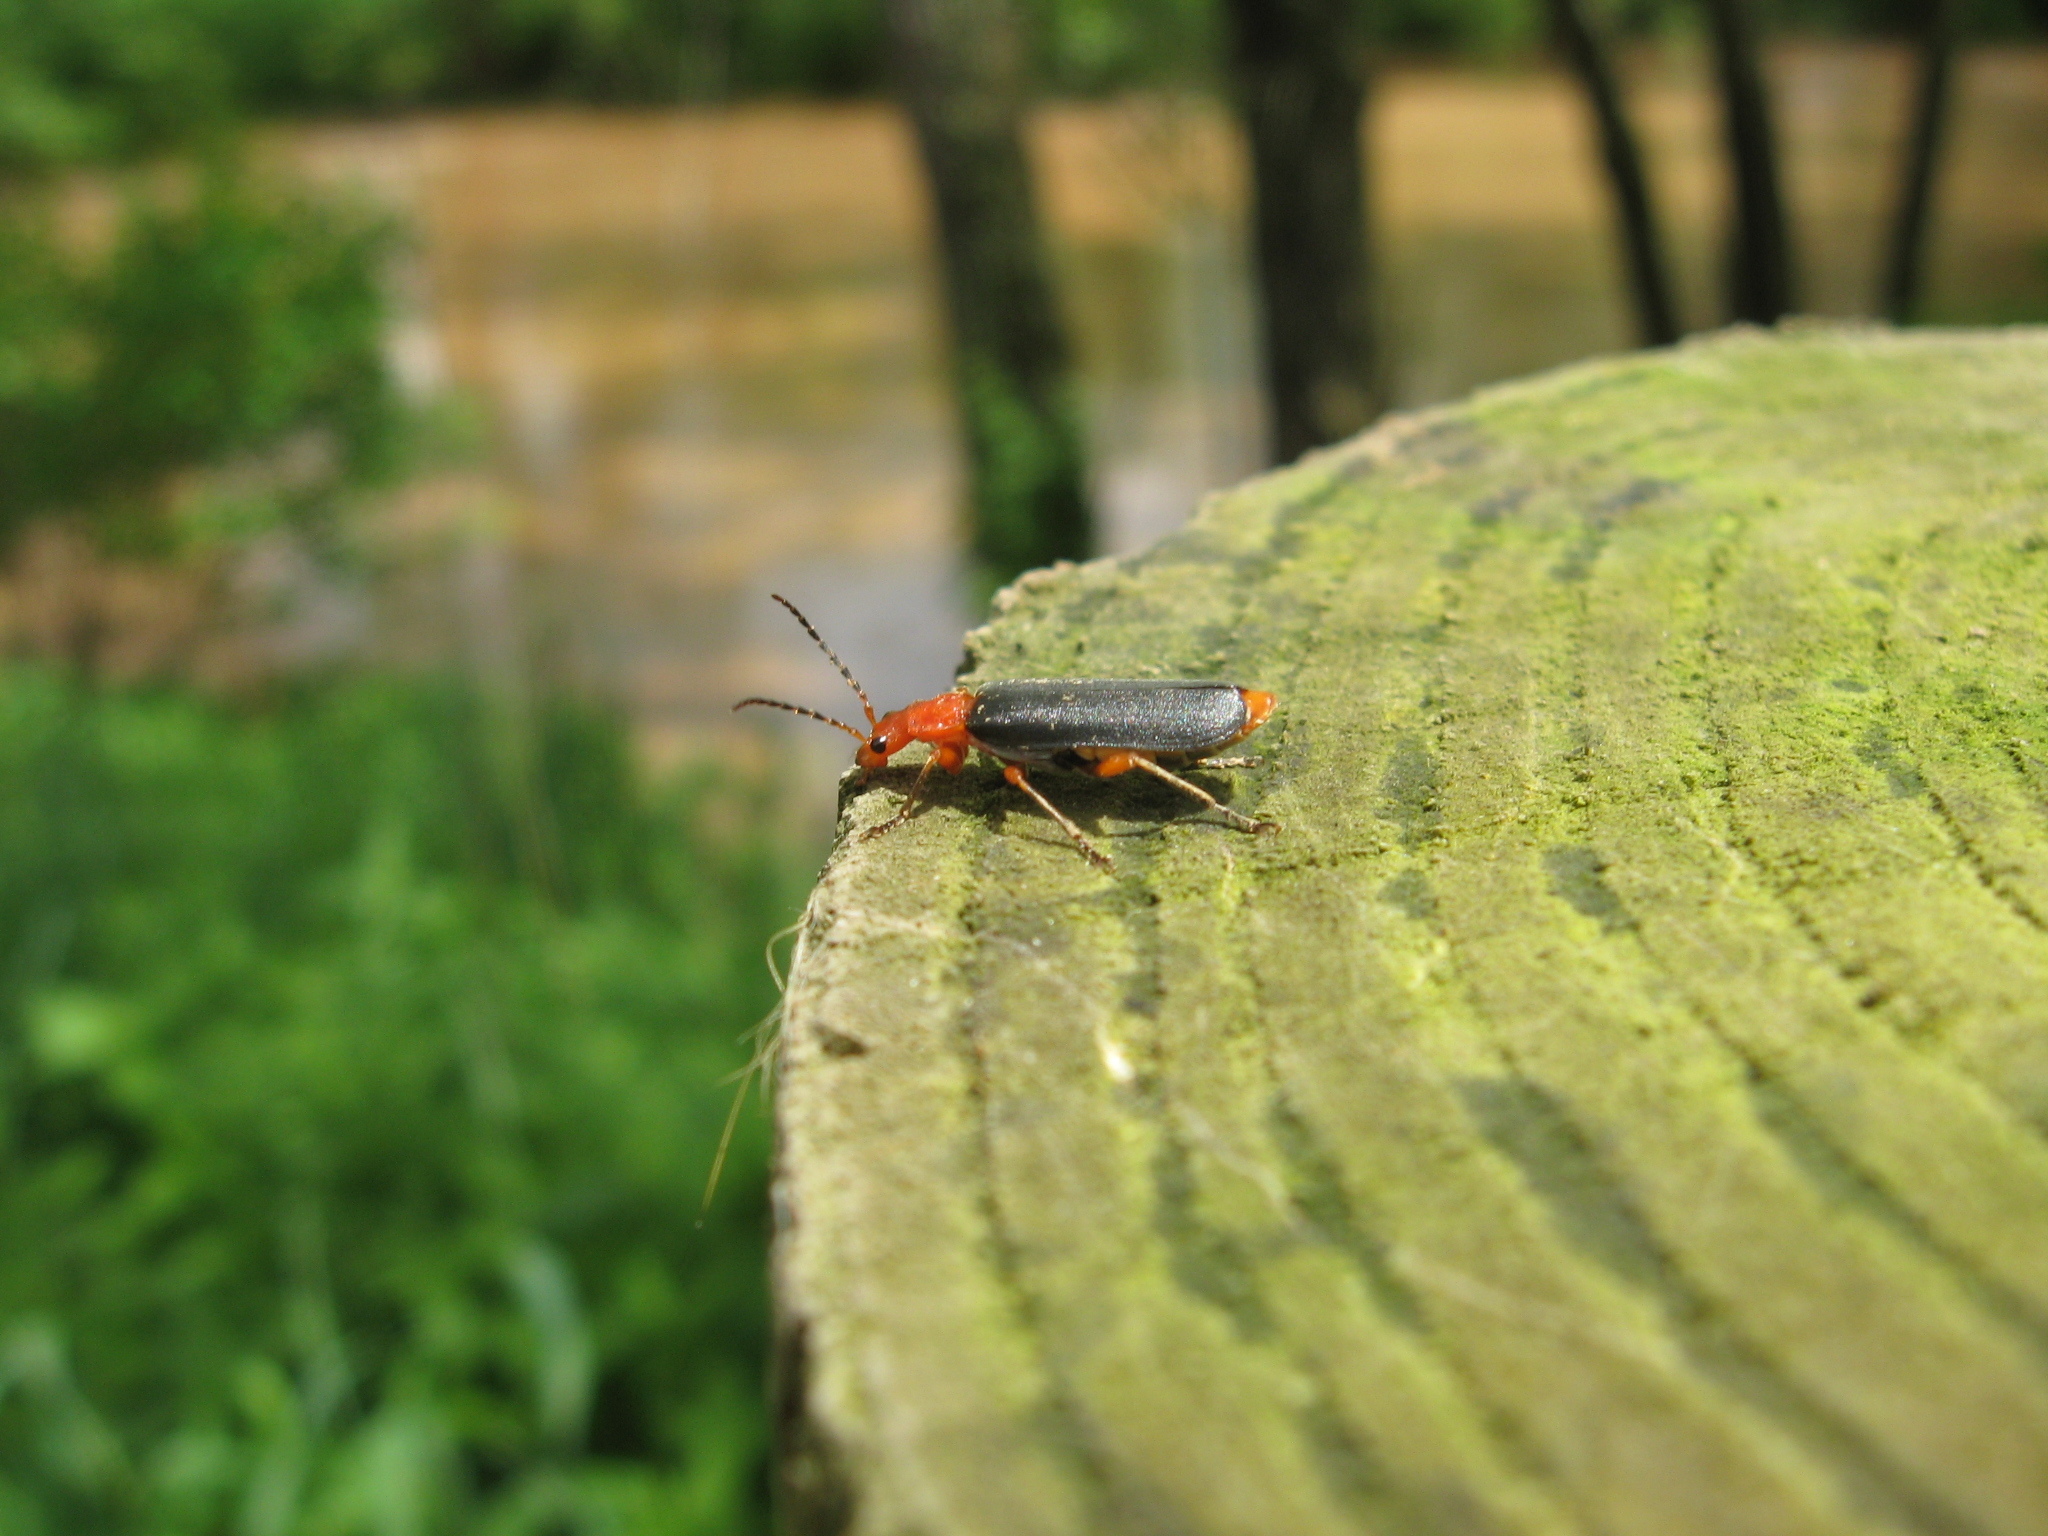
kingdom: Animalia
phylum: Arthropoda
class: Insecta
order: Coleoptera
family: Cantharidae
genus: Podabrus
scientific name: Podabrus tomentosus
